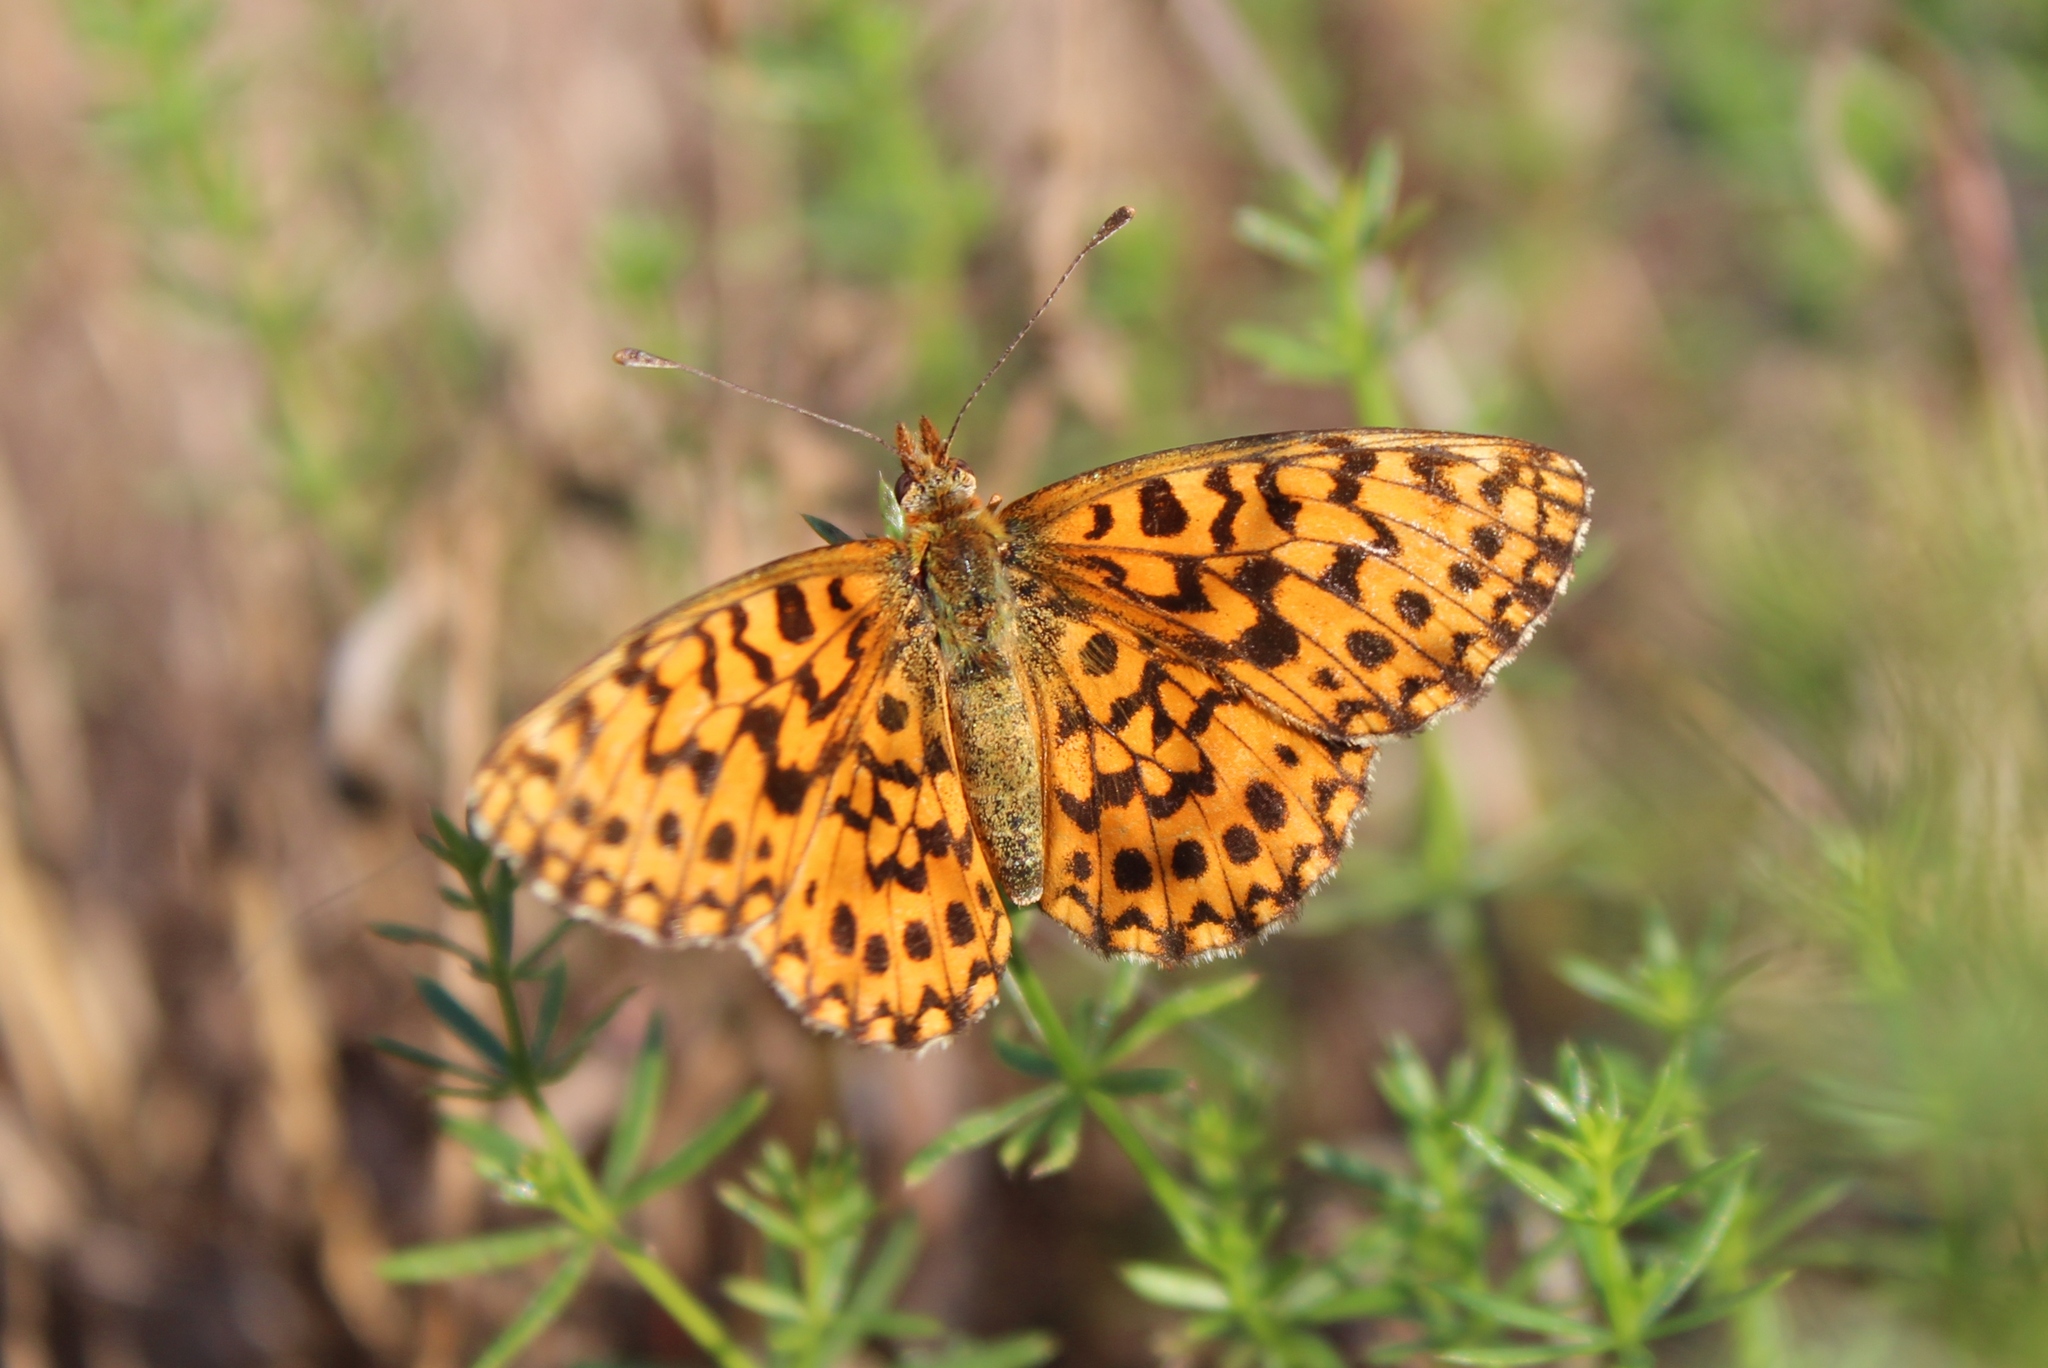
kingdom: Animalia
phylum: Arthropoda
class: Insecta
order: Lepidoptera
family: Nymphalidae
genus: Boloria
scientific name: Boloria dia
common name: Weaver's fritillary
